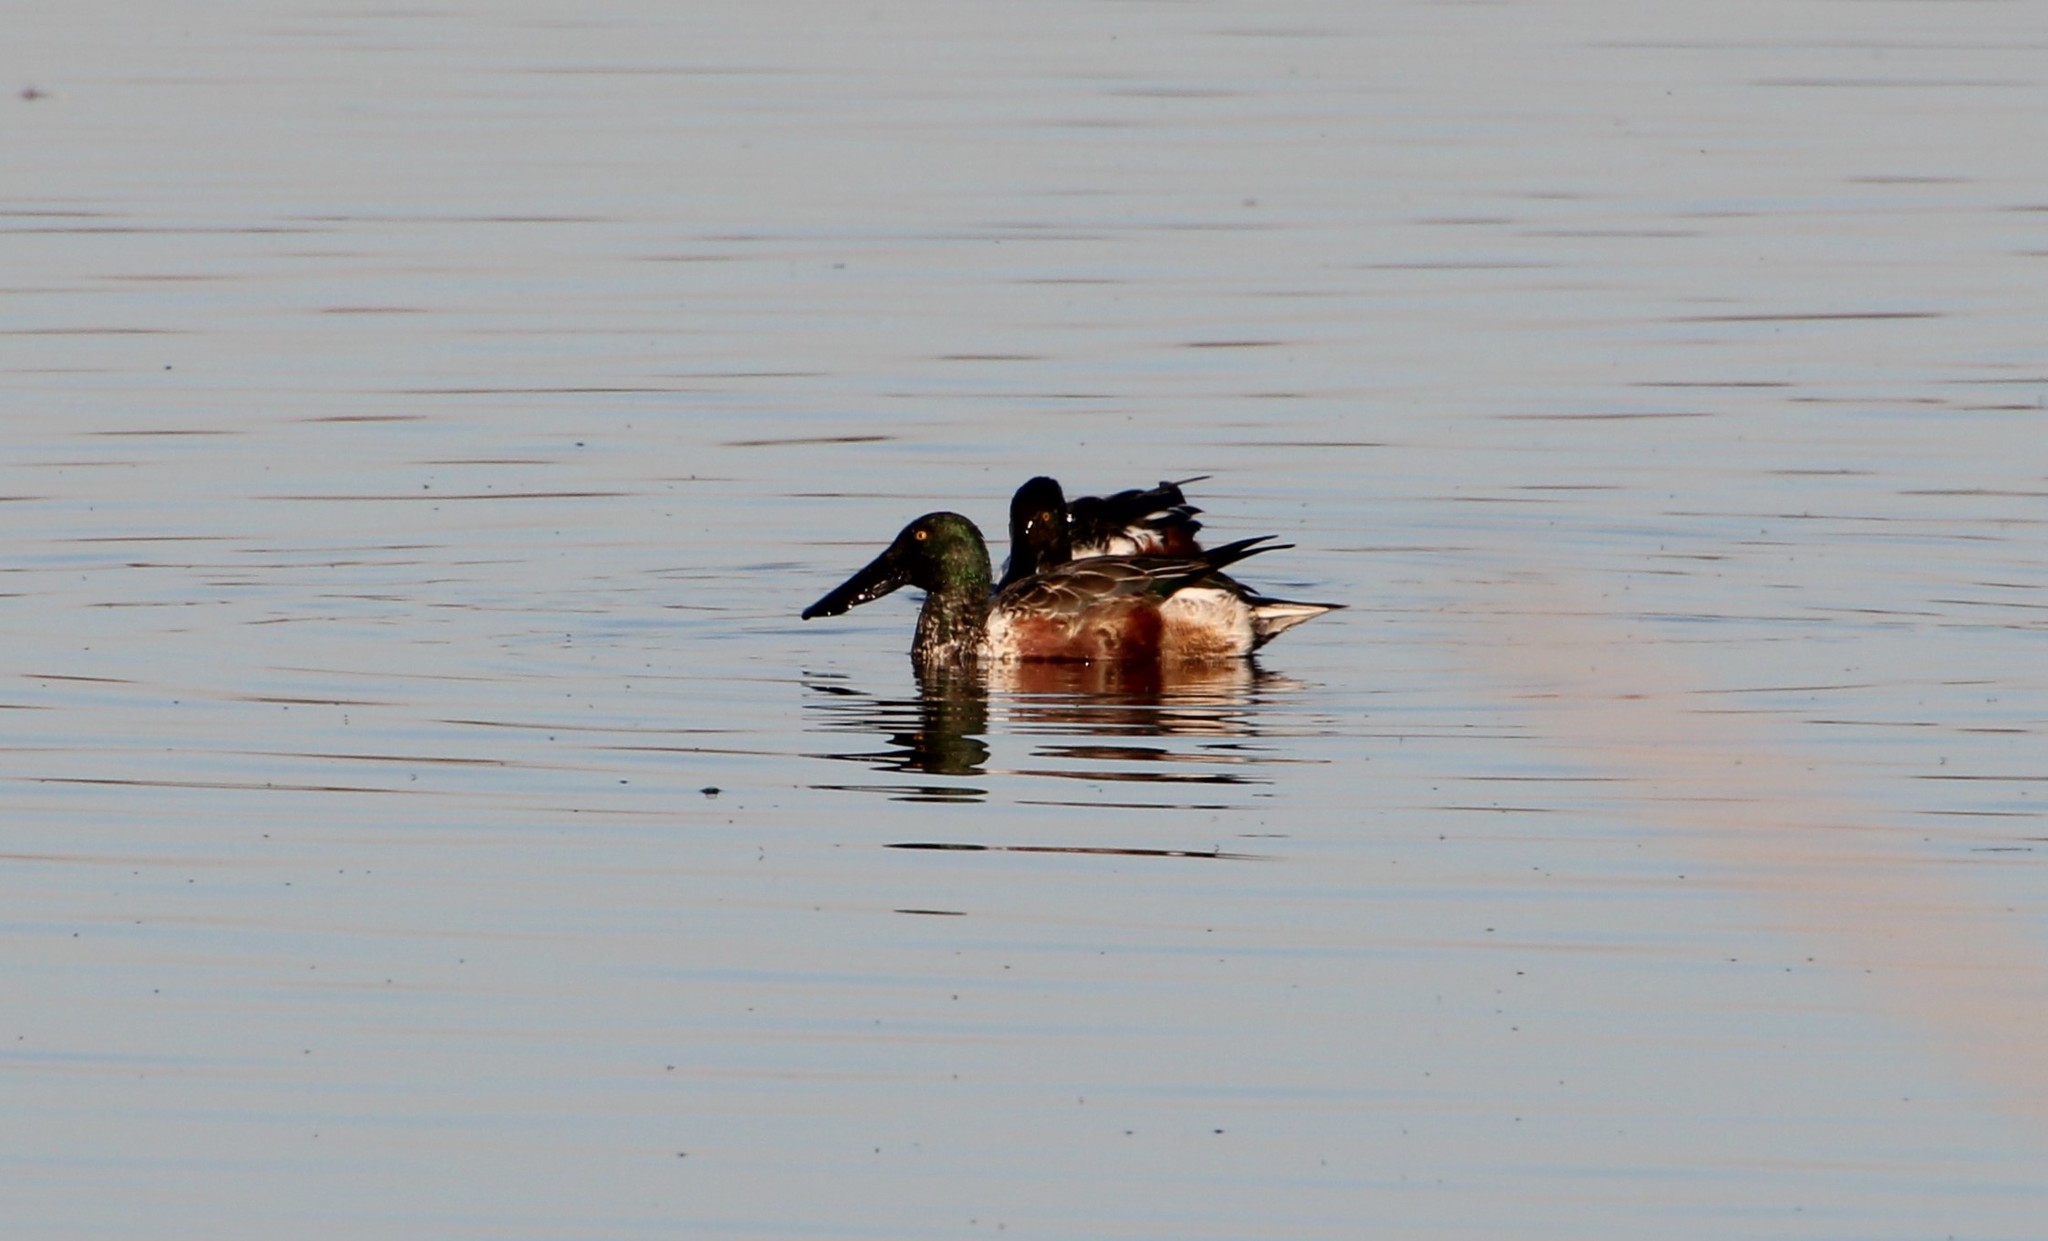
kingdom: Animalia
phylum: Chordata
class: Aves
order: Anseriformes
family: Anatidae
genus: Spatula
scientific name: Spatula clypeata
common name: Northern shoveler
